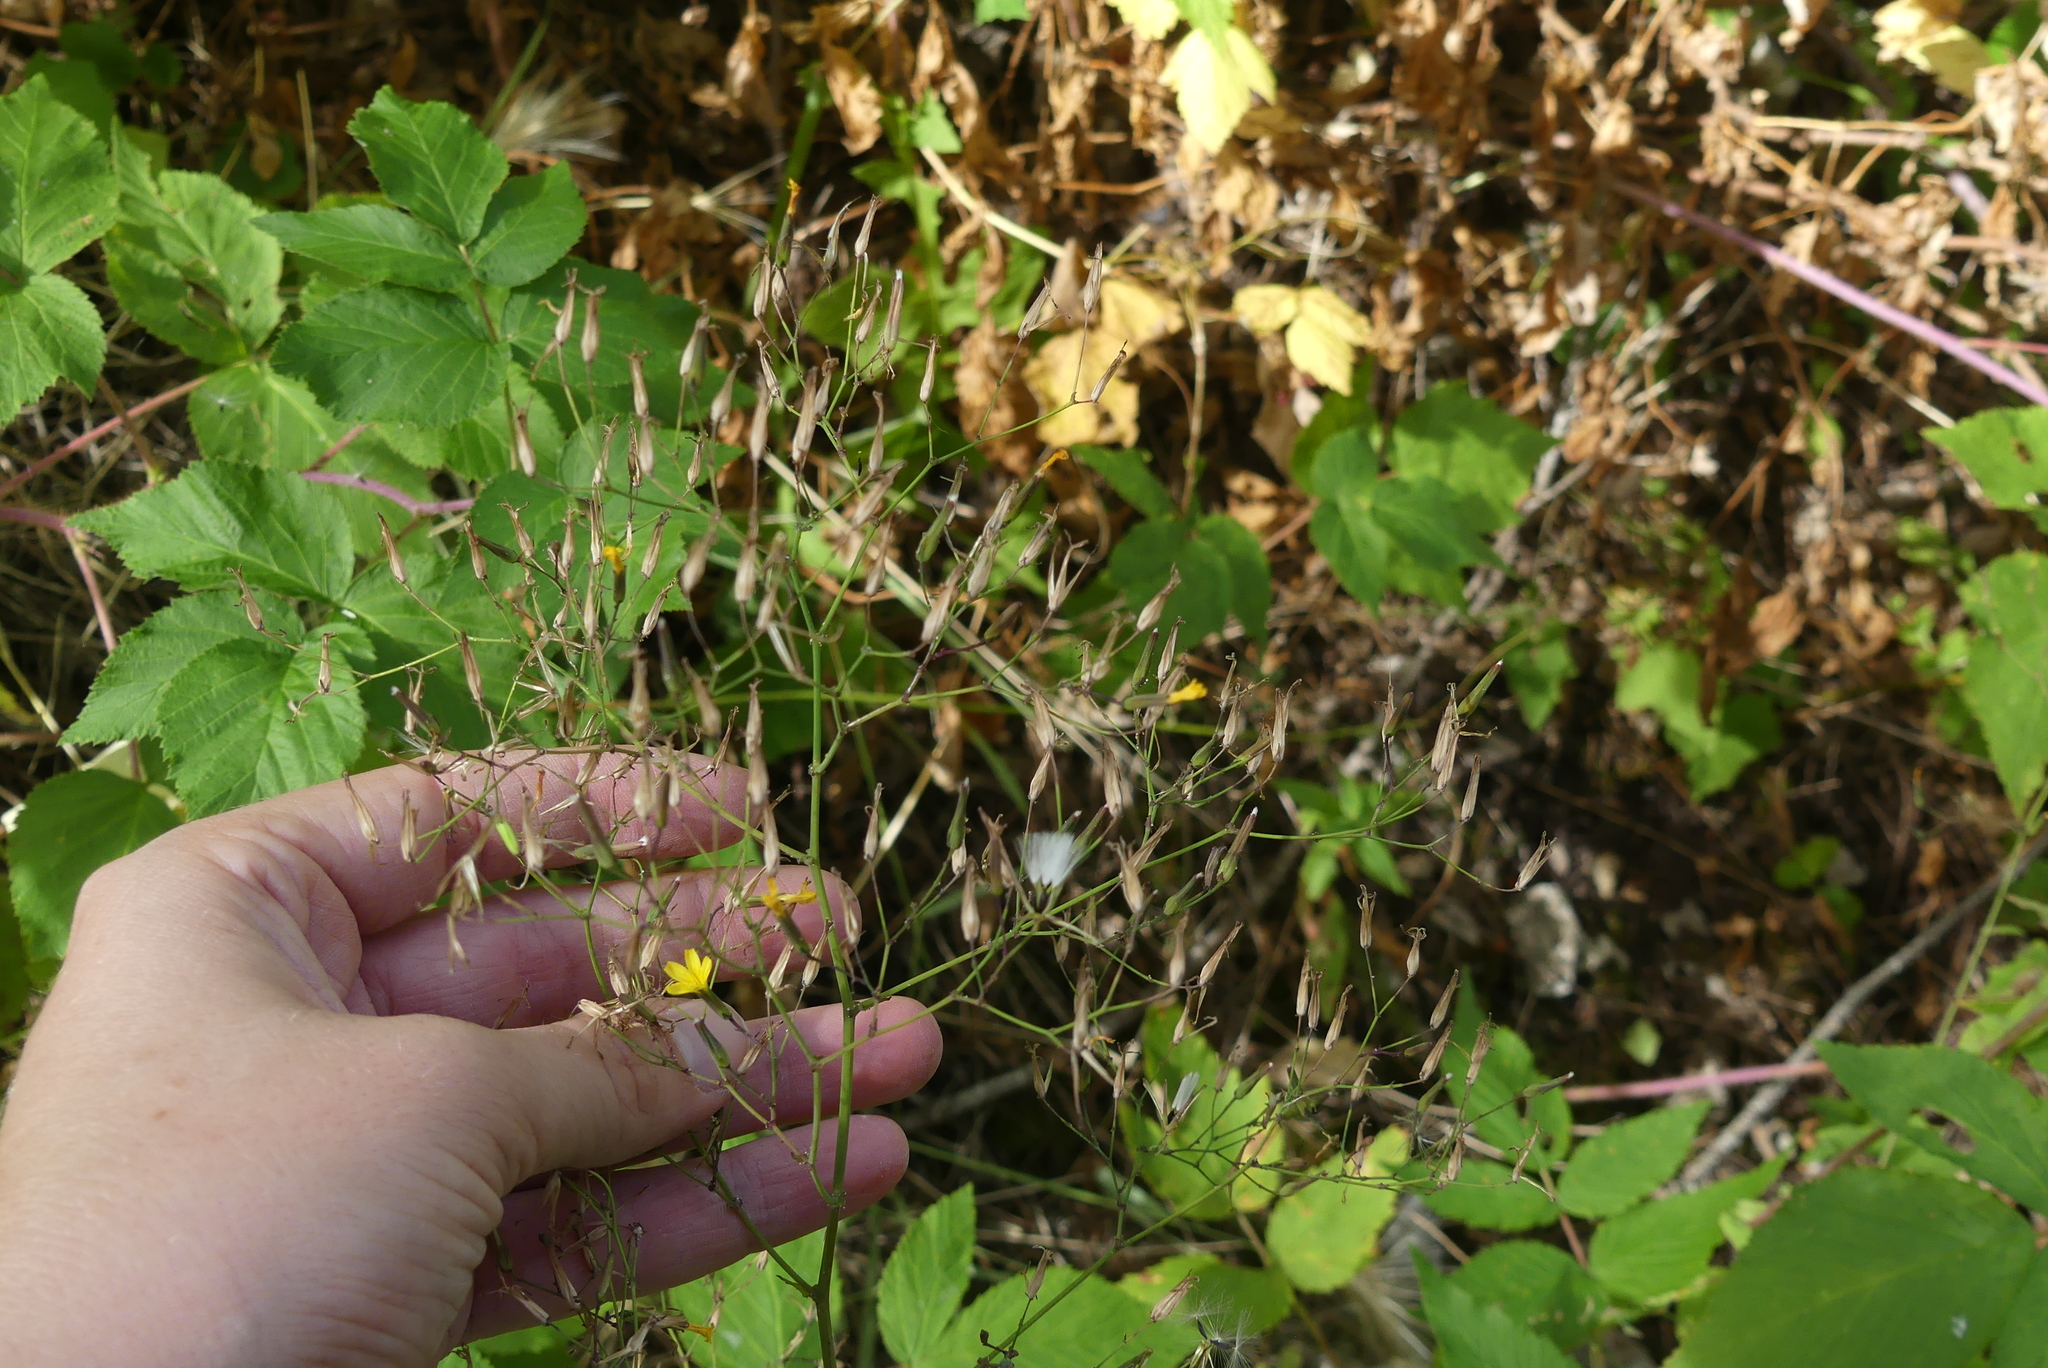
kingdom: Plantae
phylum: Tracheophyta
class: Magnoliopsida
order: Asterales
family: Asteraceae
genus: Mycelis
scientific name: Mycelis muralis
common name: Wall lettuce
